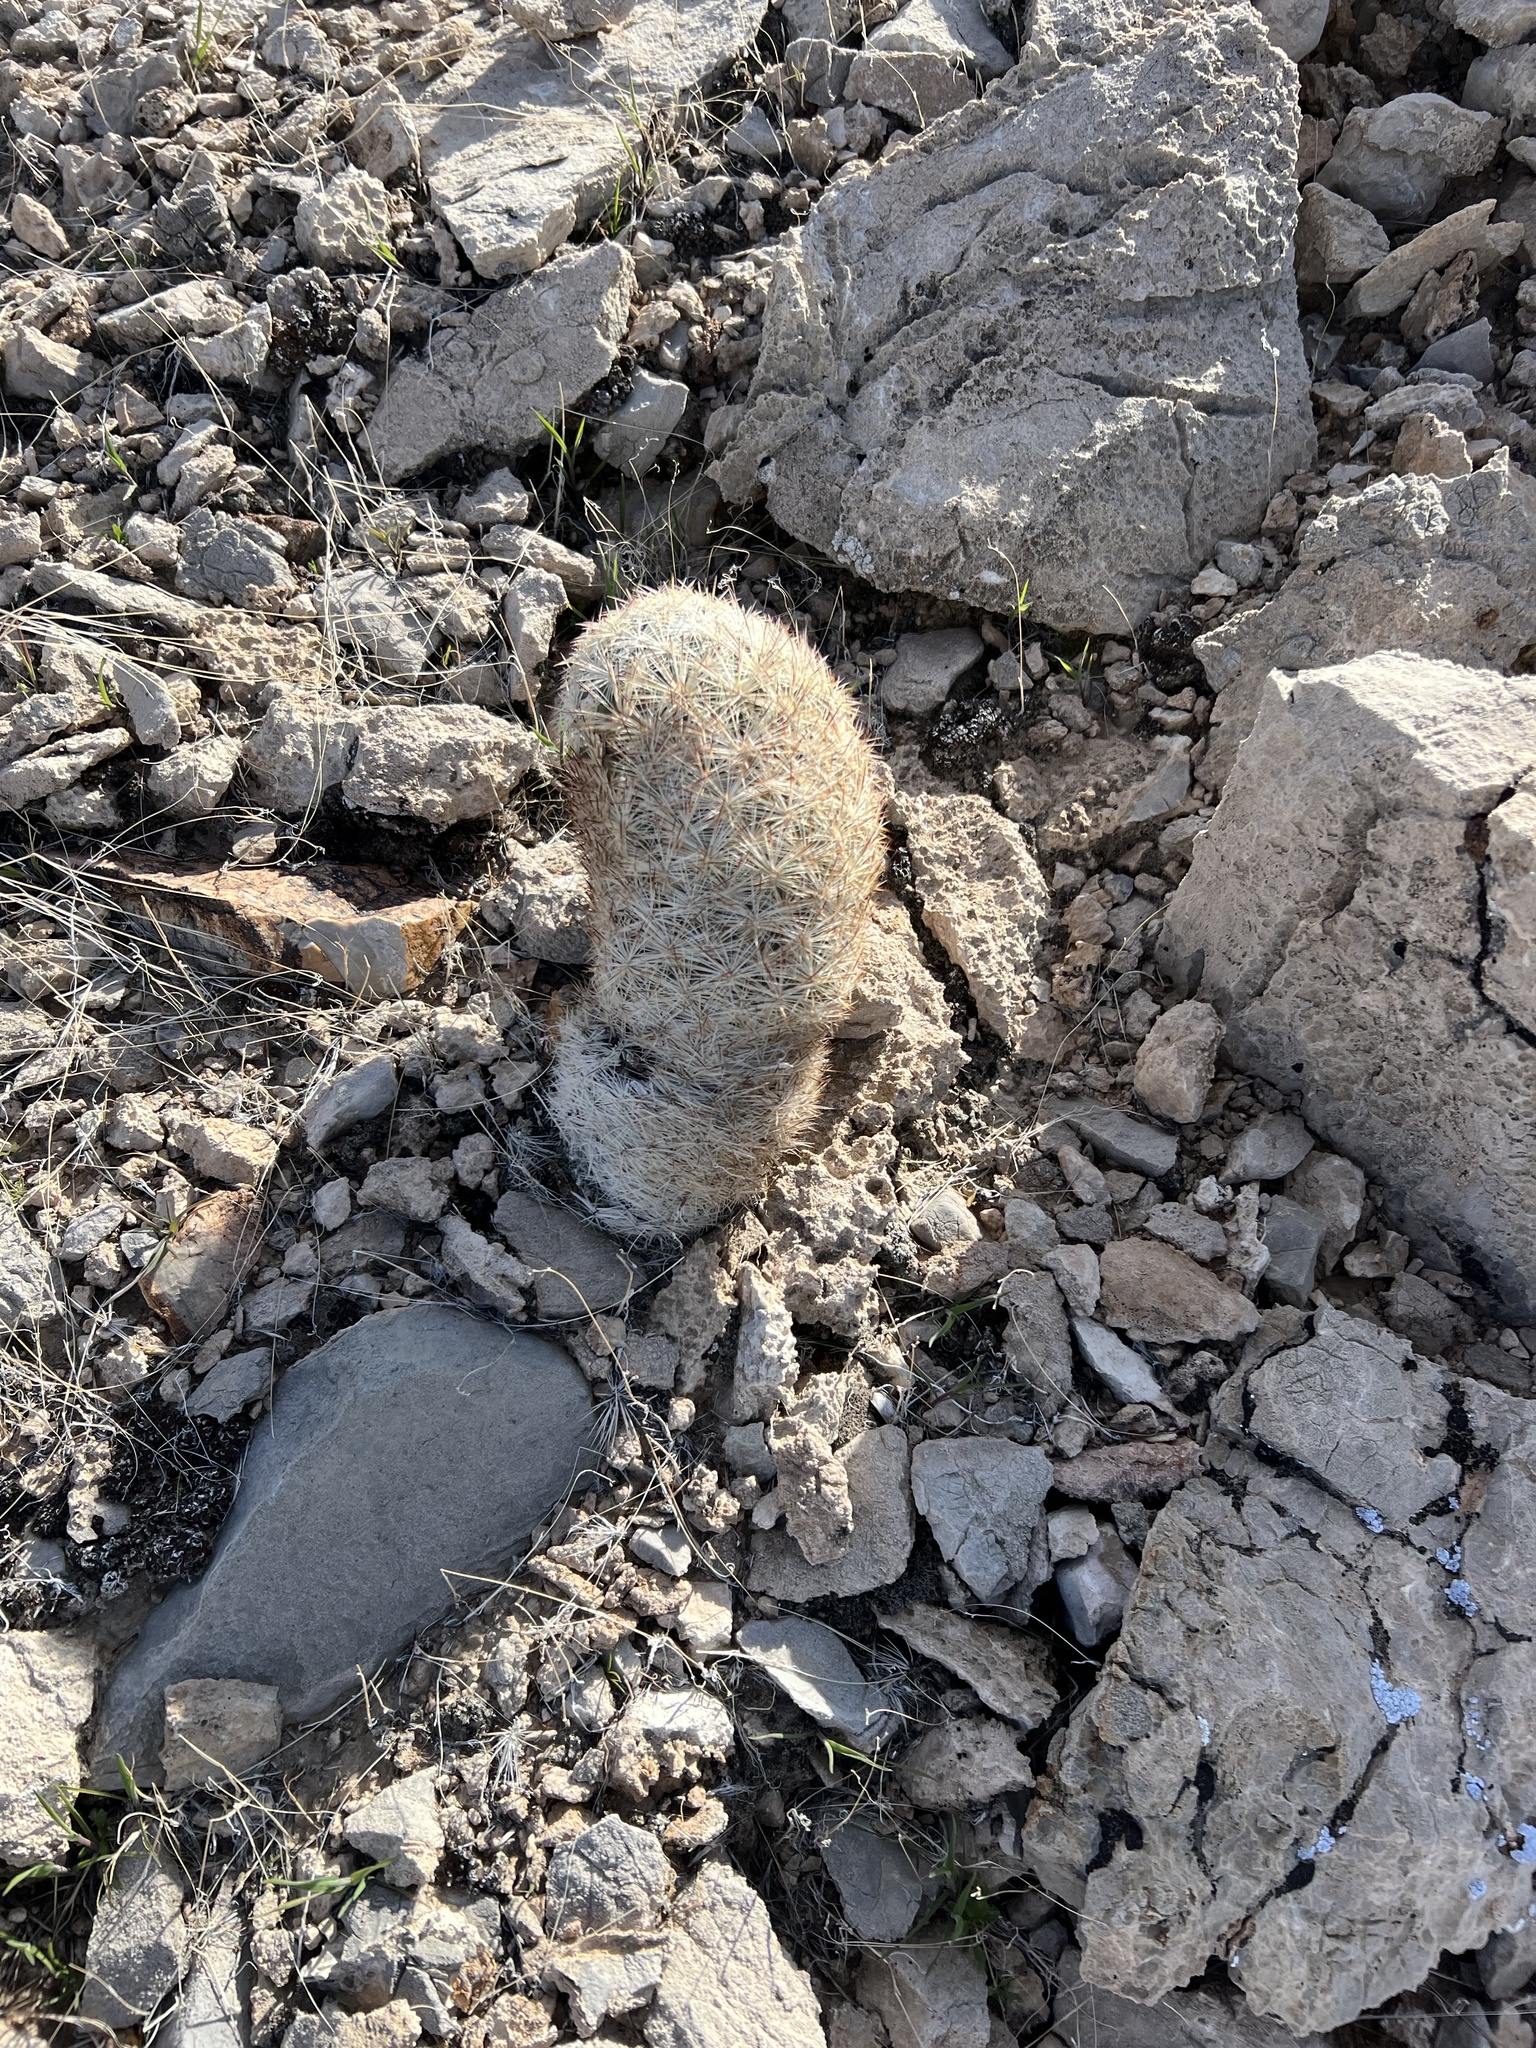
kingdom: Plantae
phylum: Tracheophyta
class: Magnoliopsida
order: Caryophyllales
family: Cactaceae
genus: Pelecyphora
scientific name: Pelecyphora dasyacantha
